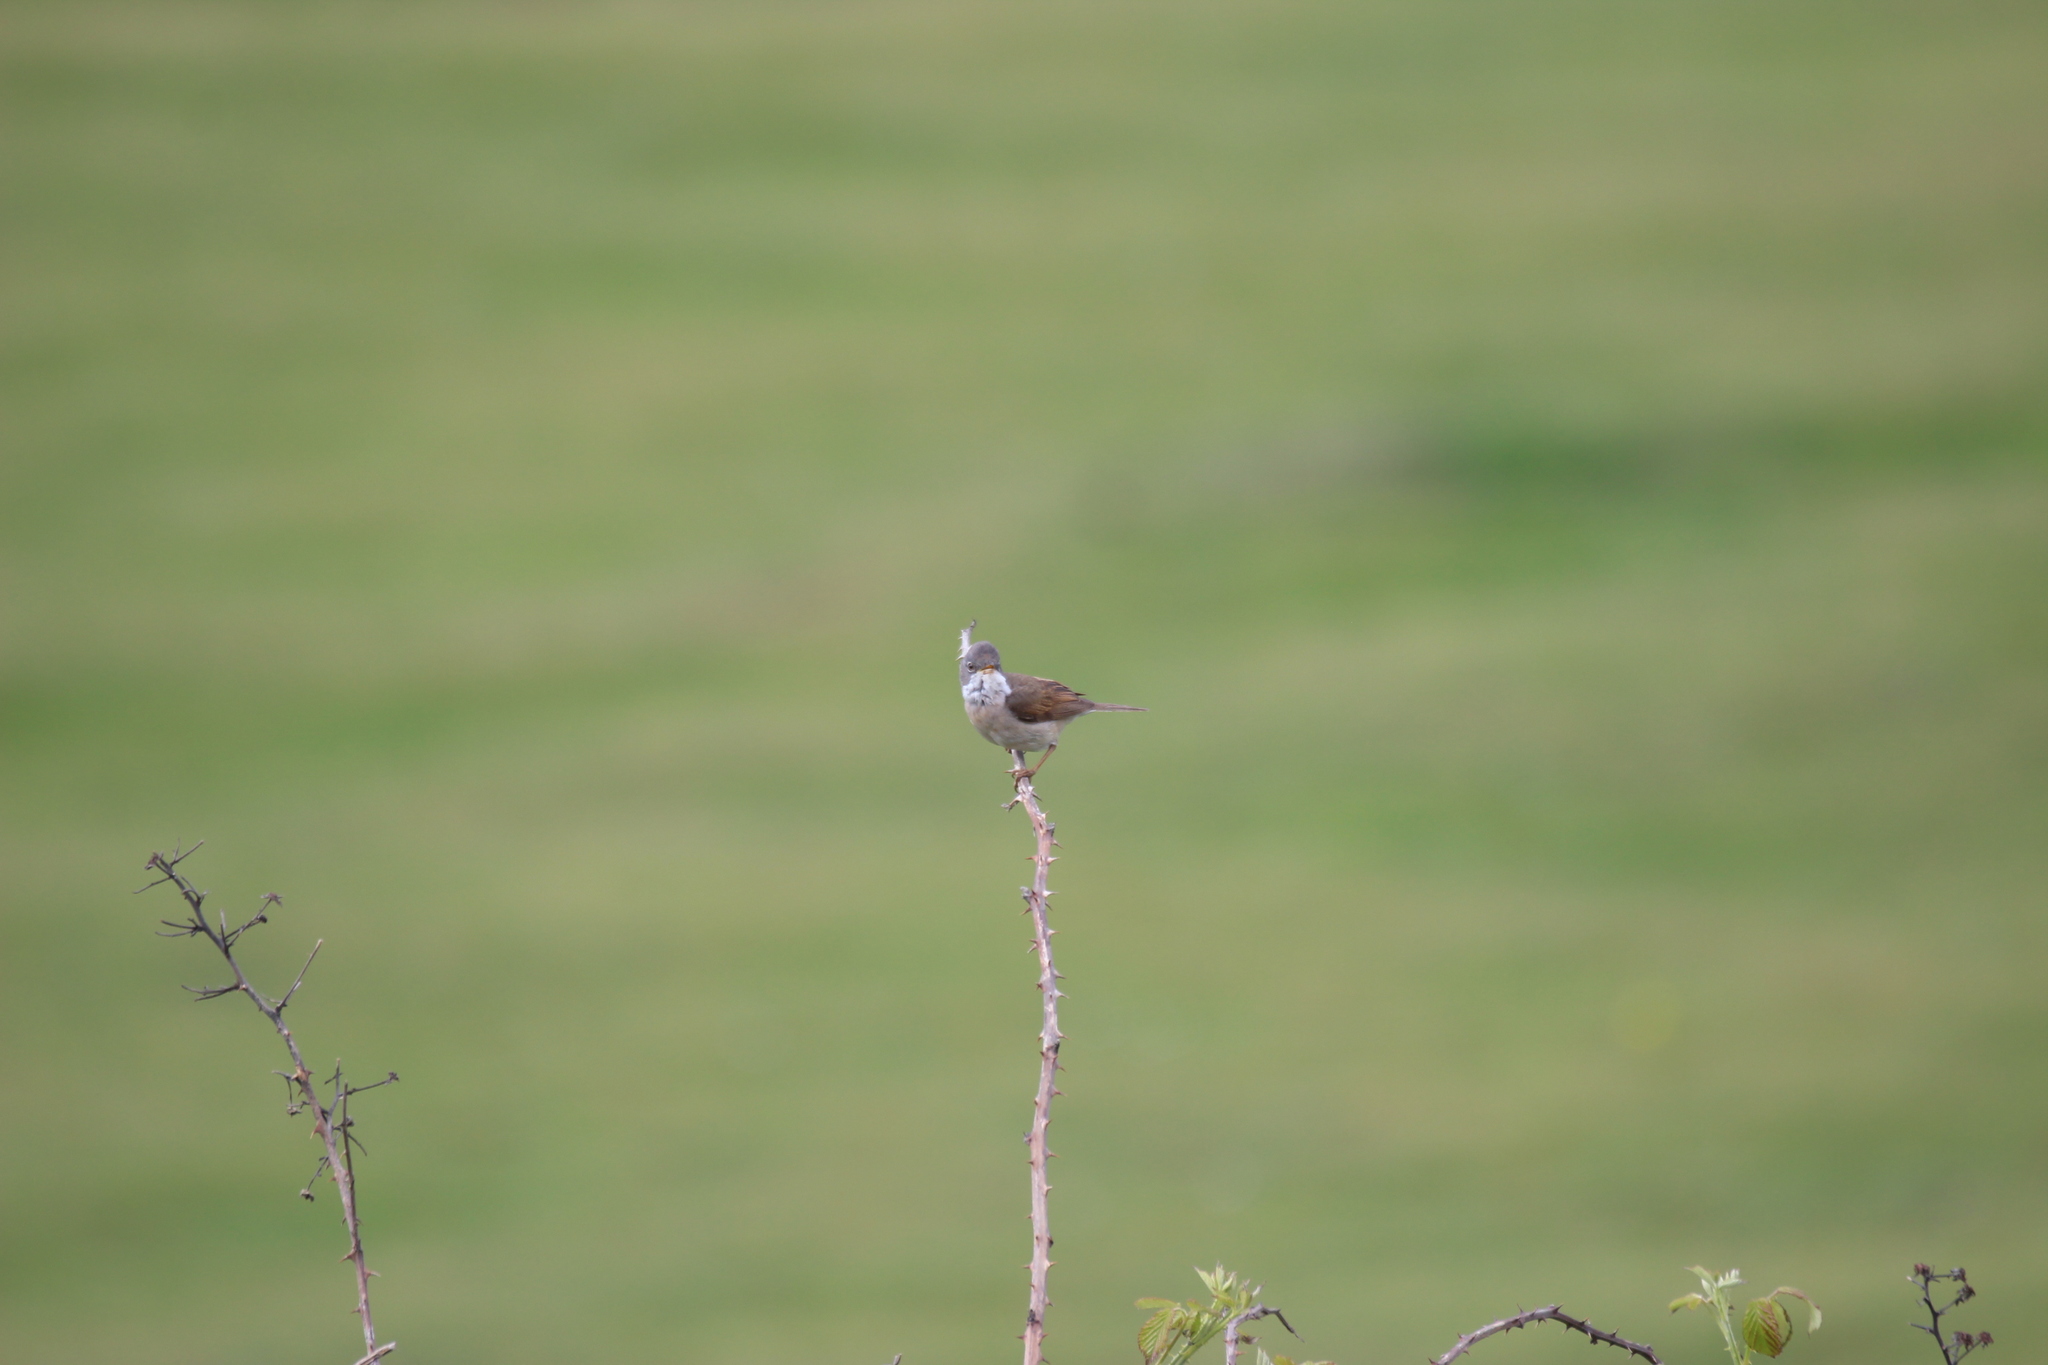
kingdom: Animalia
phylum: Chordata
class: Aves
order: Passeriformes
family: Sylviidae
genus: Sylvia
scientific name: Sylvia communis
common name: Common whitethroat
